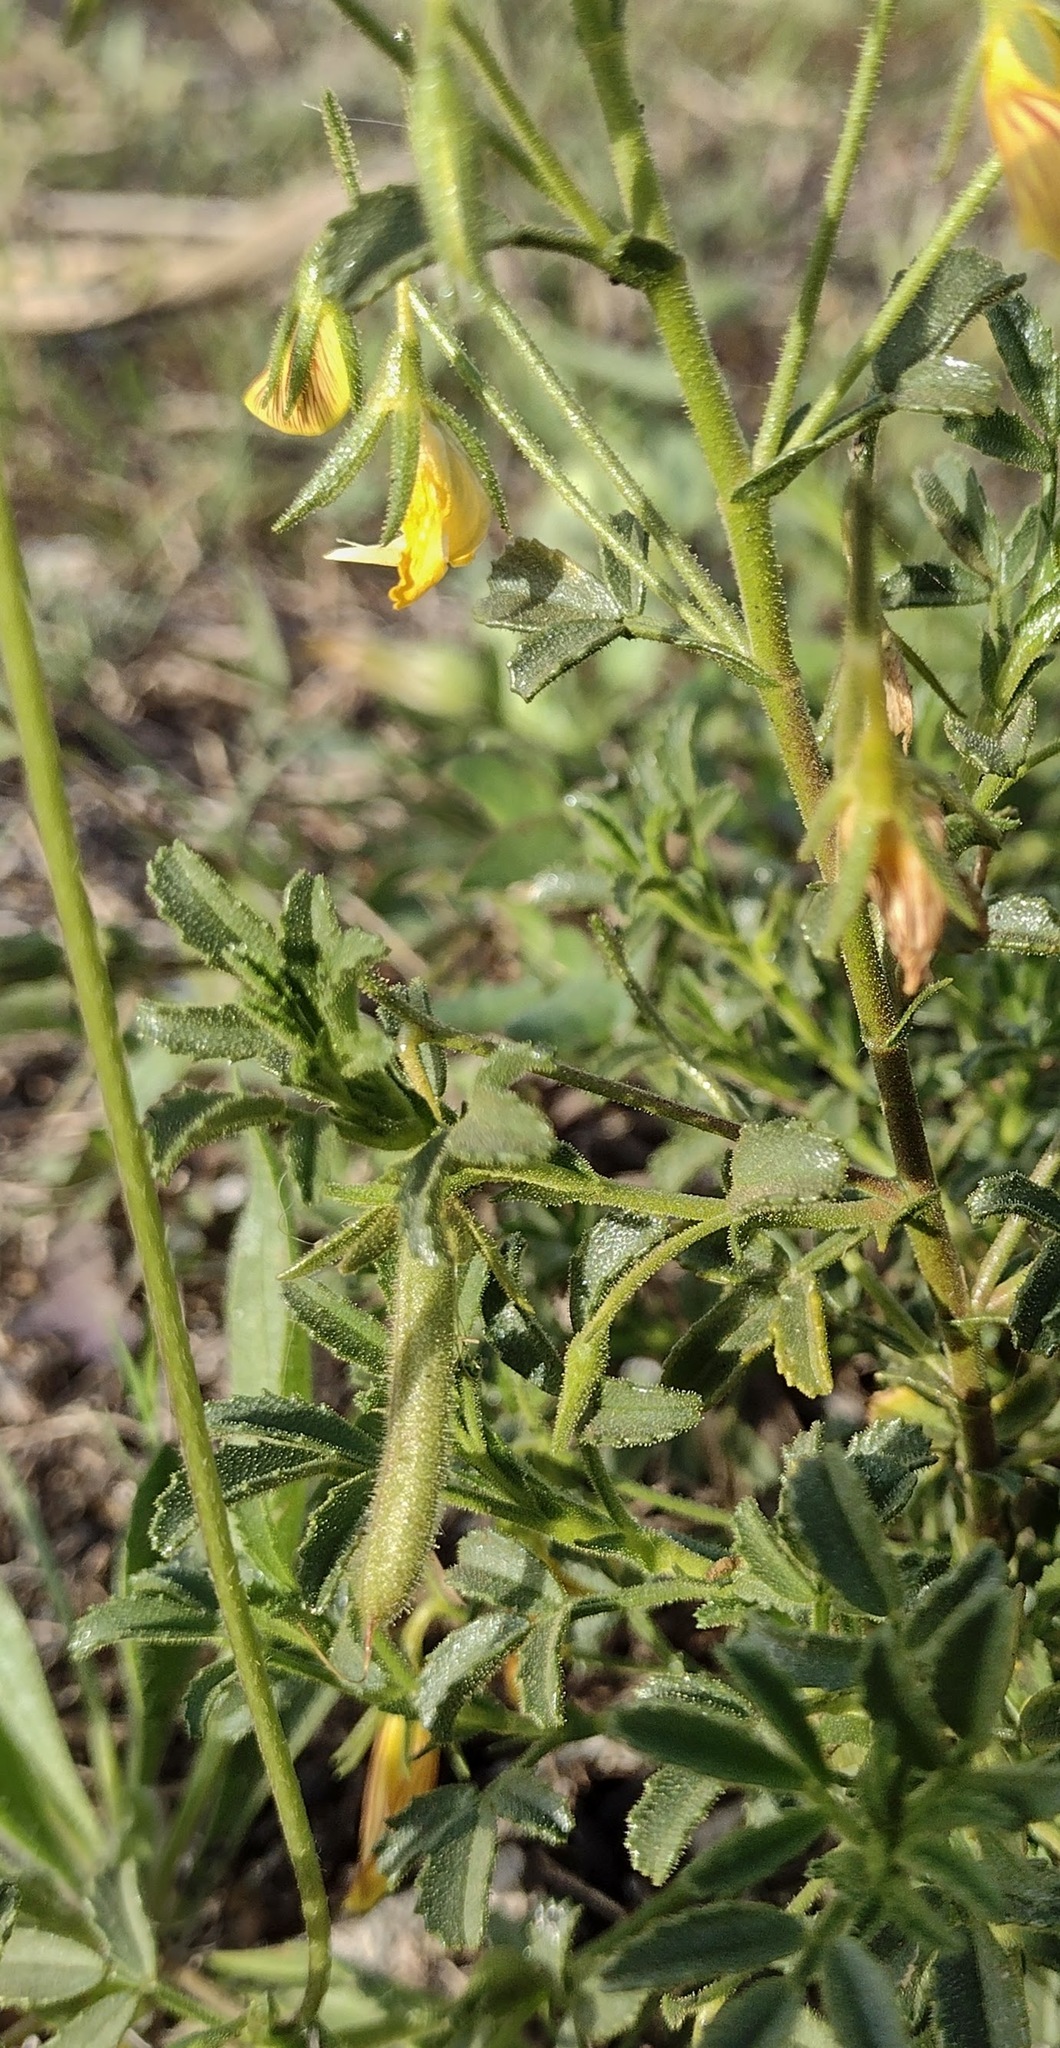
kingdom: Plantae
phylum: Tracheophyta
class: Magnoliopsida
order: Fabales
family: Fabaceae
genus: Ononis
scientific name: Ononis ramosissima
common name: Bush restharrow
